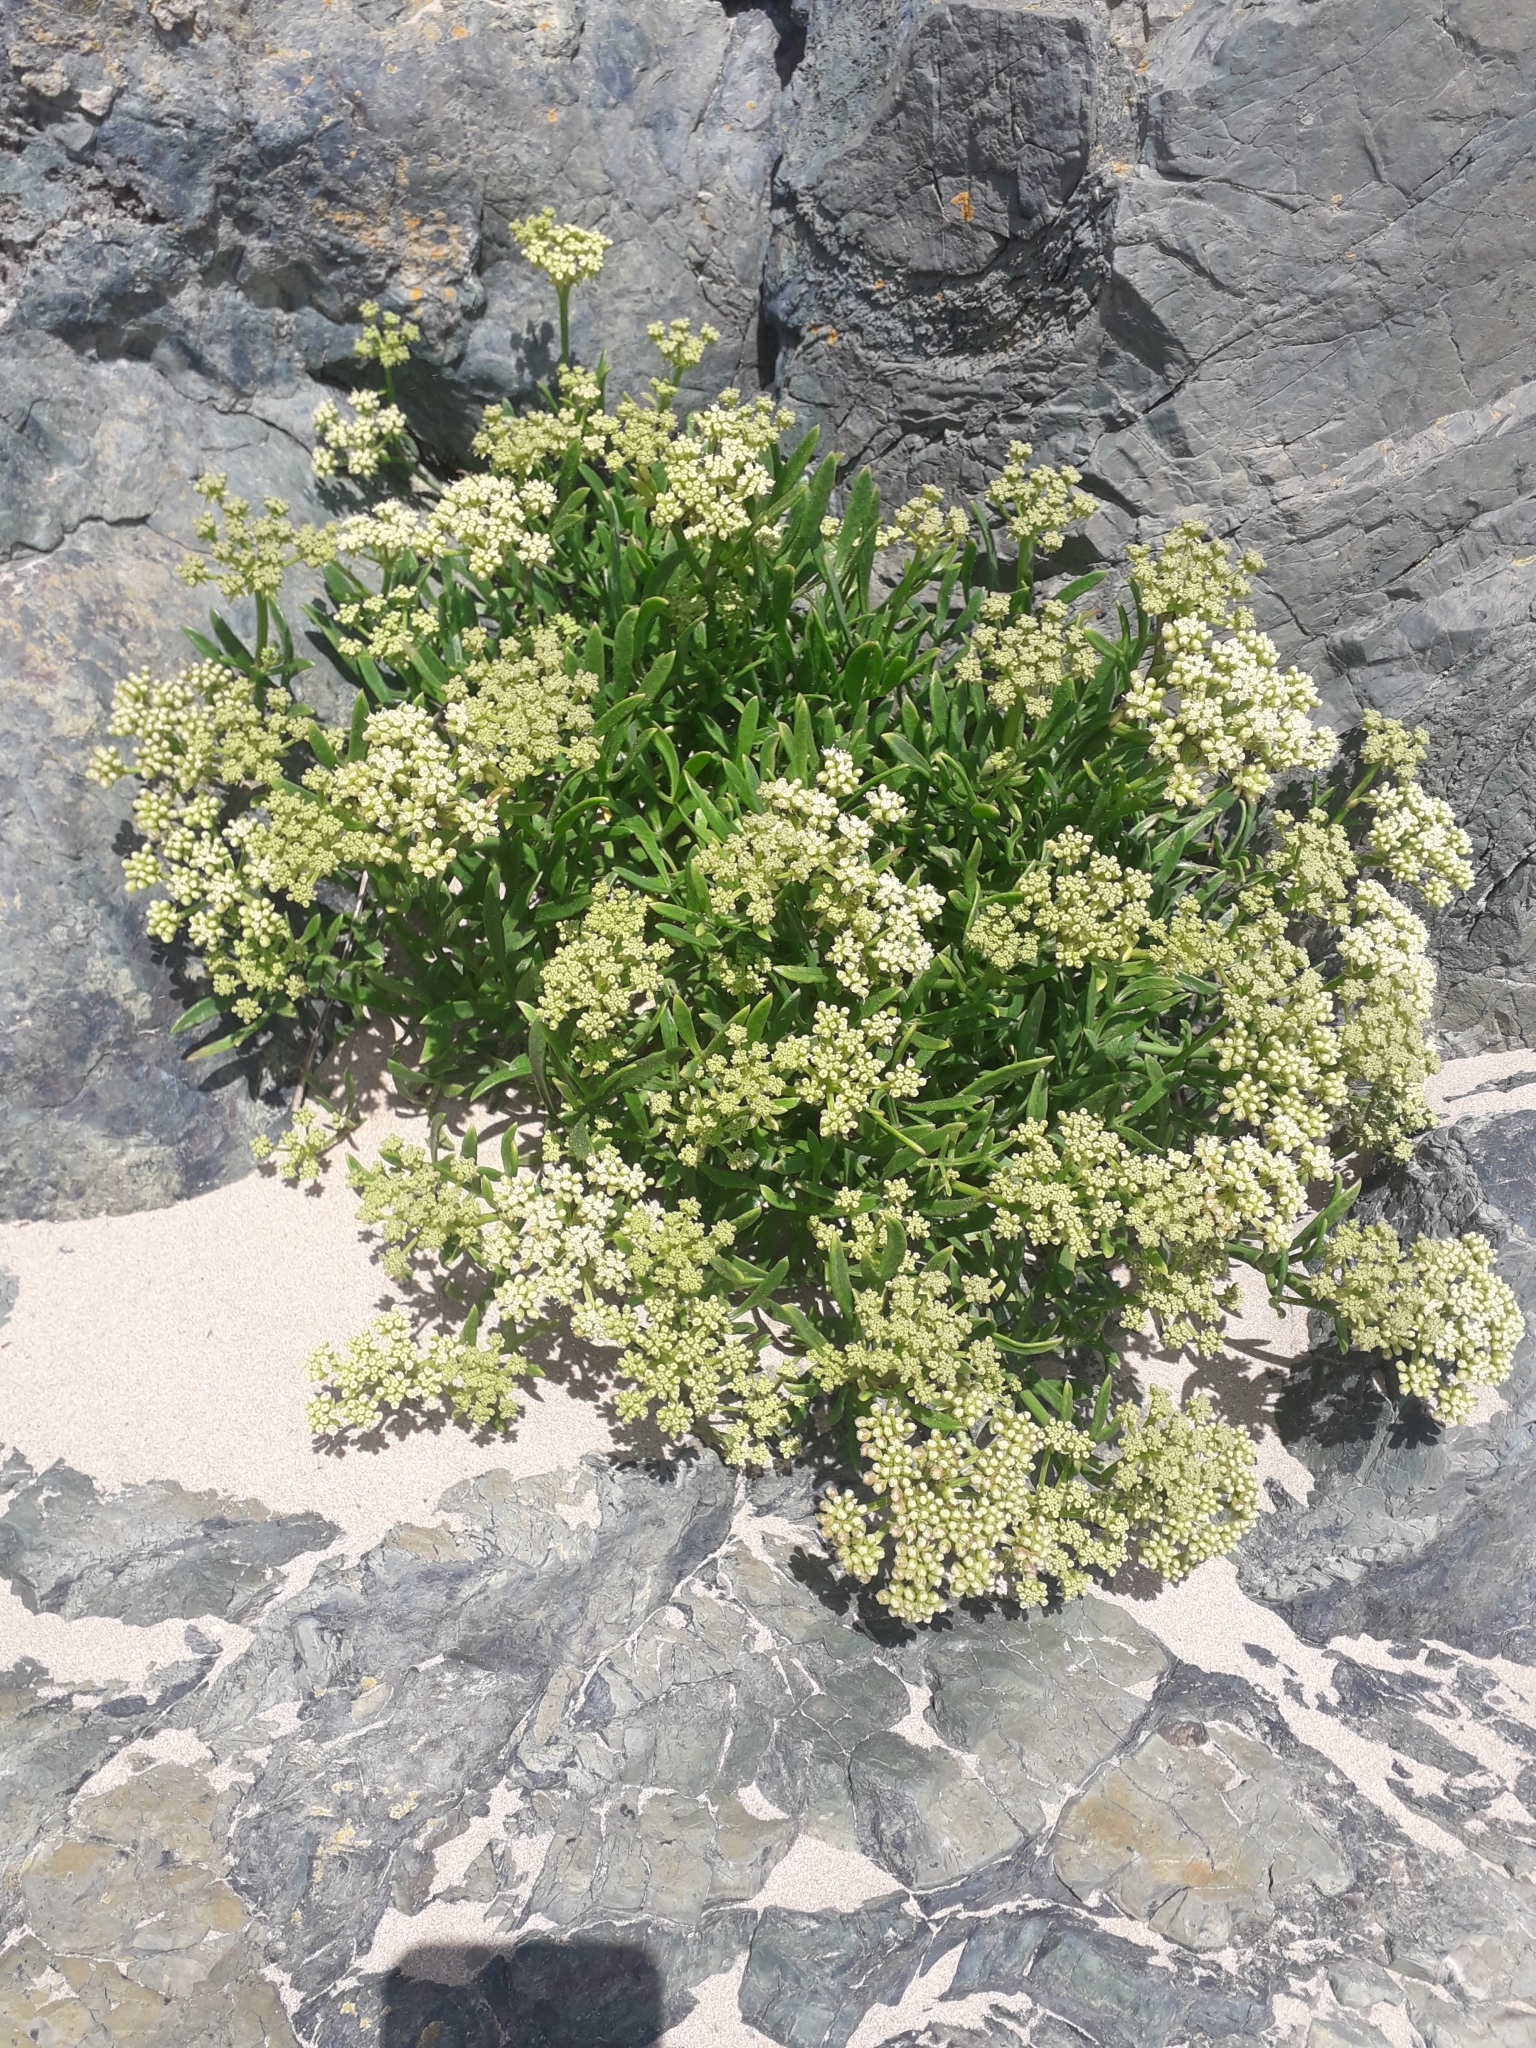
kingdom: Plantae
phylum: Tracheophyta
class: Magnoliopsida
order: Apiales
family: Apiaceae
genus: Crithmum
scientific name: Crithmum maritimum
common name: Rock samphire
